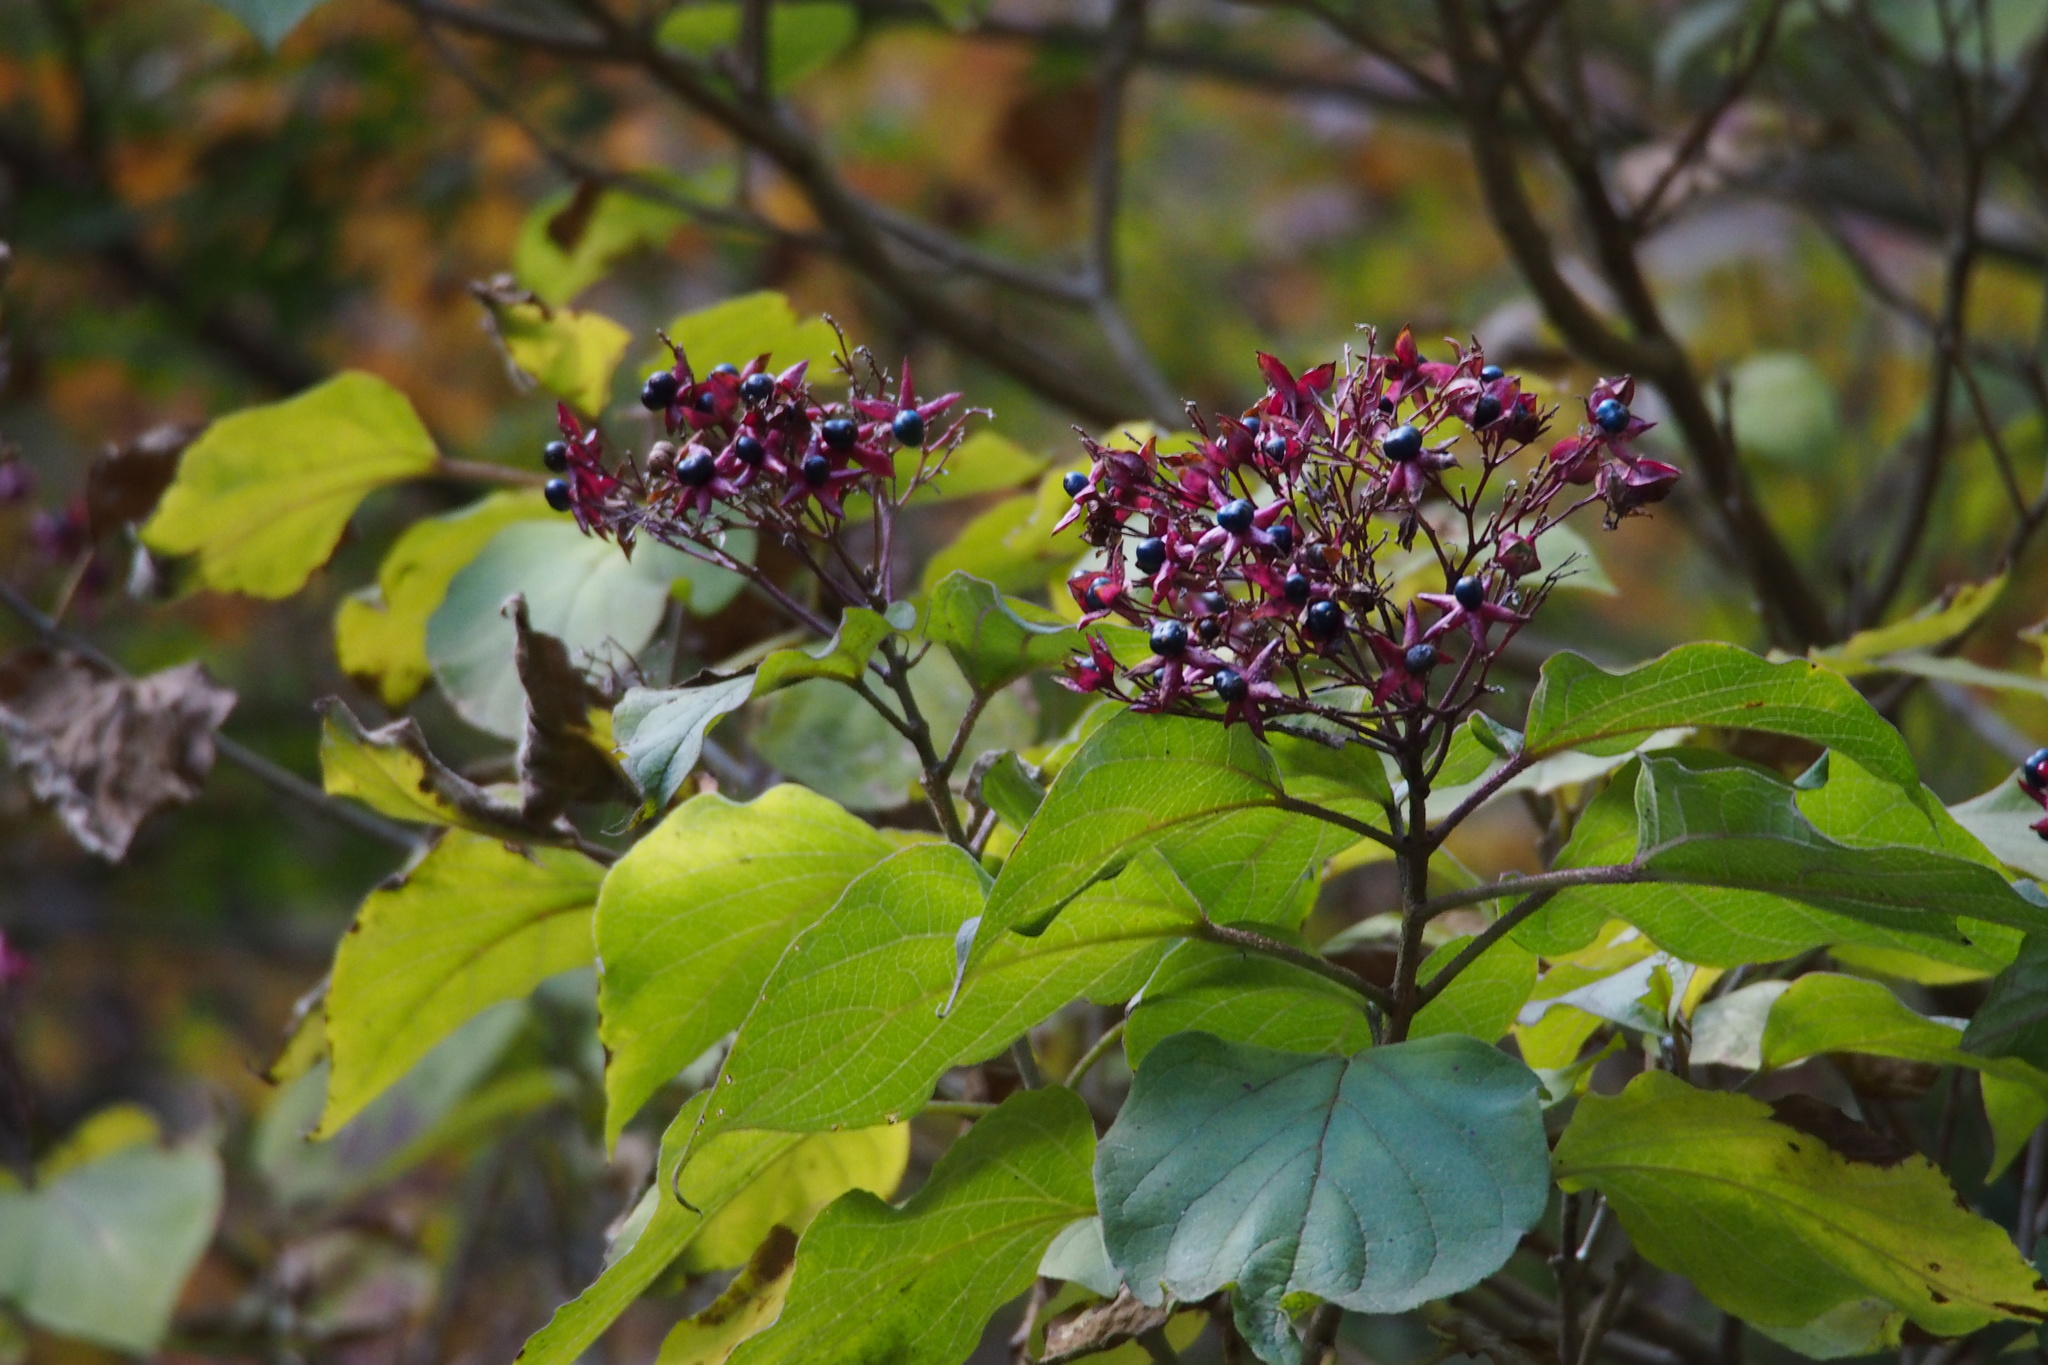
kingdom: Plantae
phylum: Tracheophyta
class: Magnoliopsida
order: Lamiales
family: Lamiaceae
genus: Clerodendrum
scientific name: Clerodendrum trichotomum
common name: Harlequin glorybower
